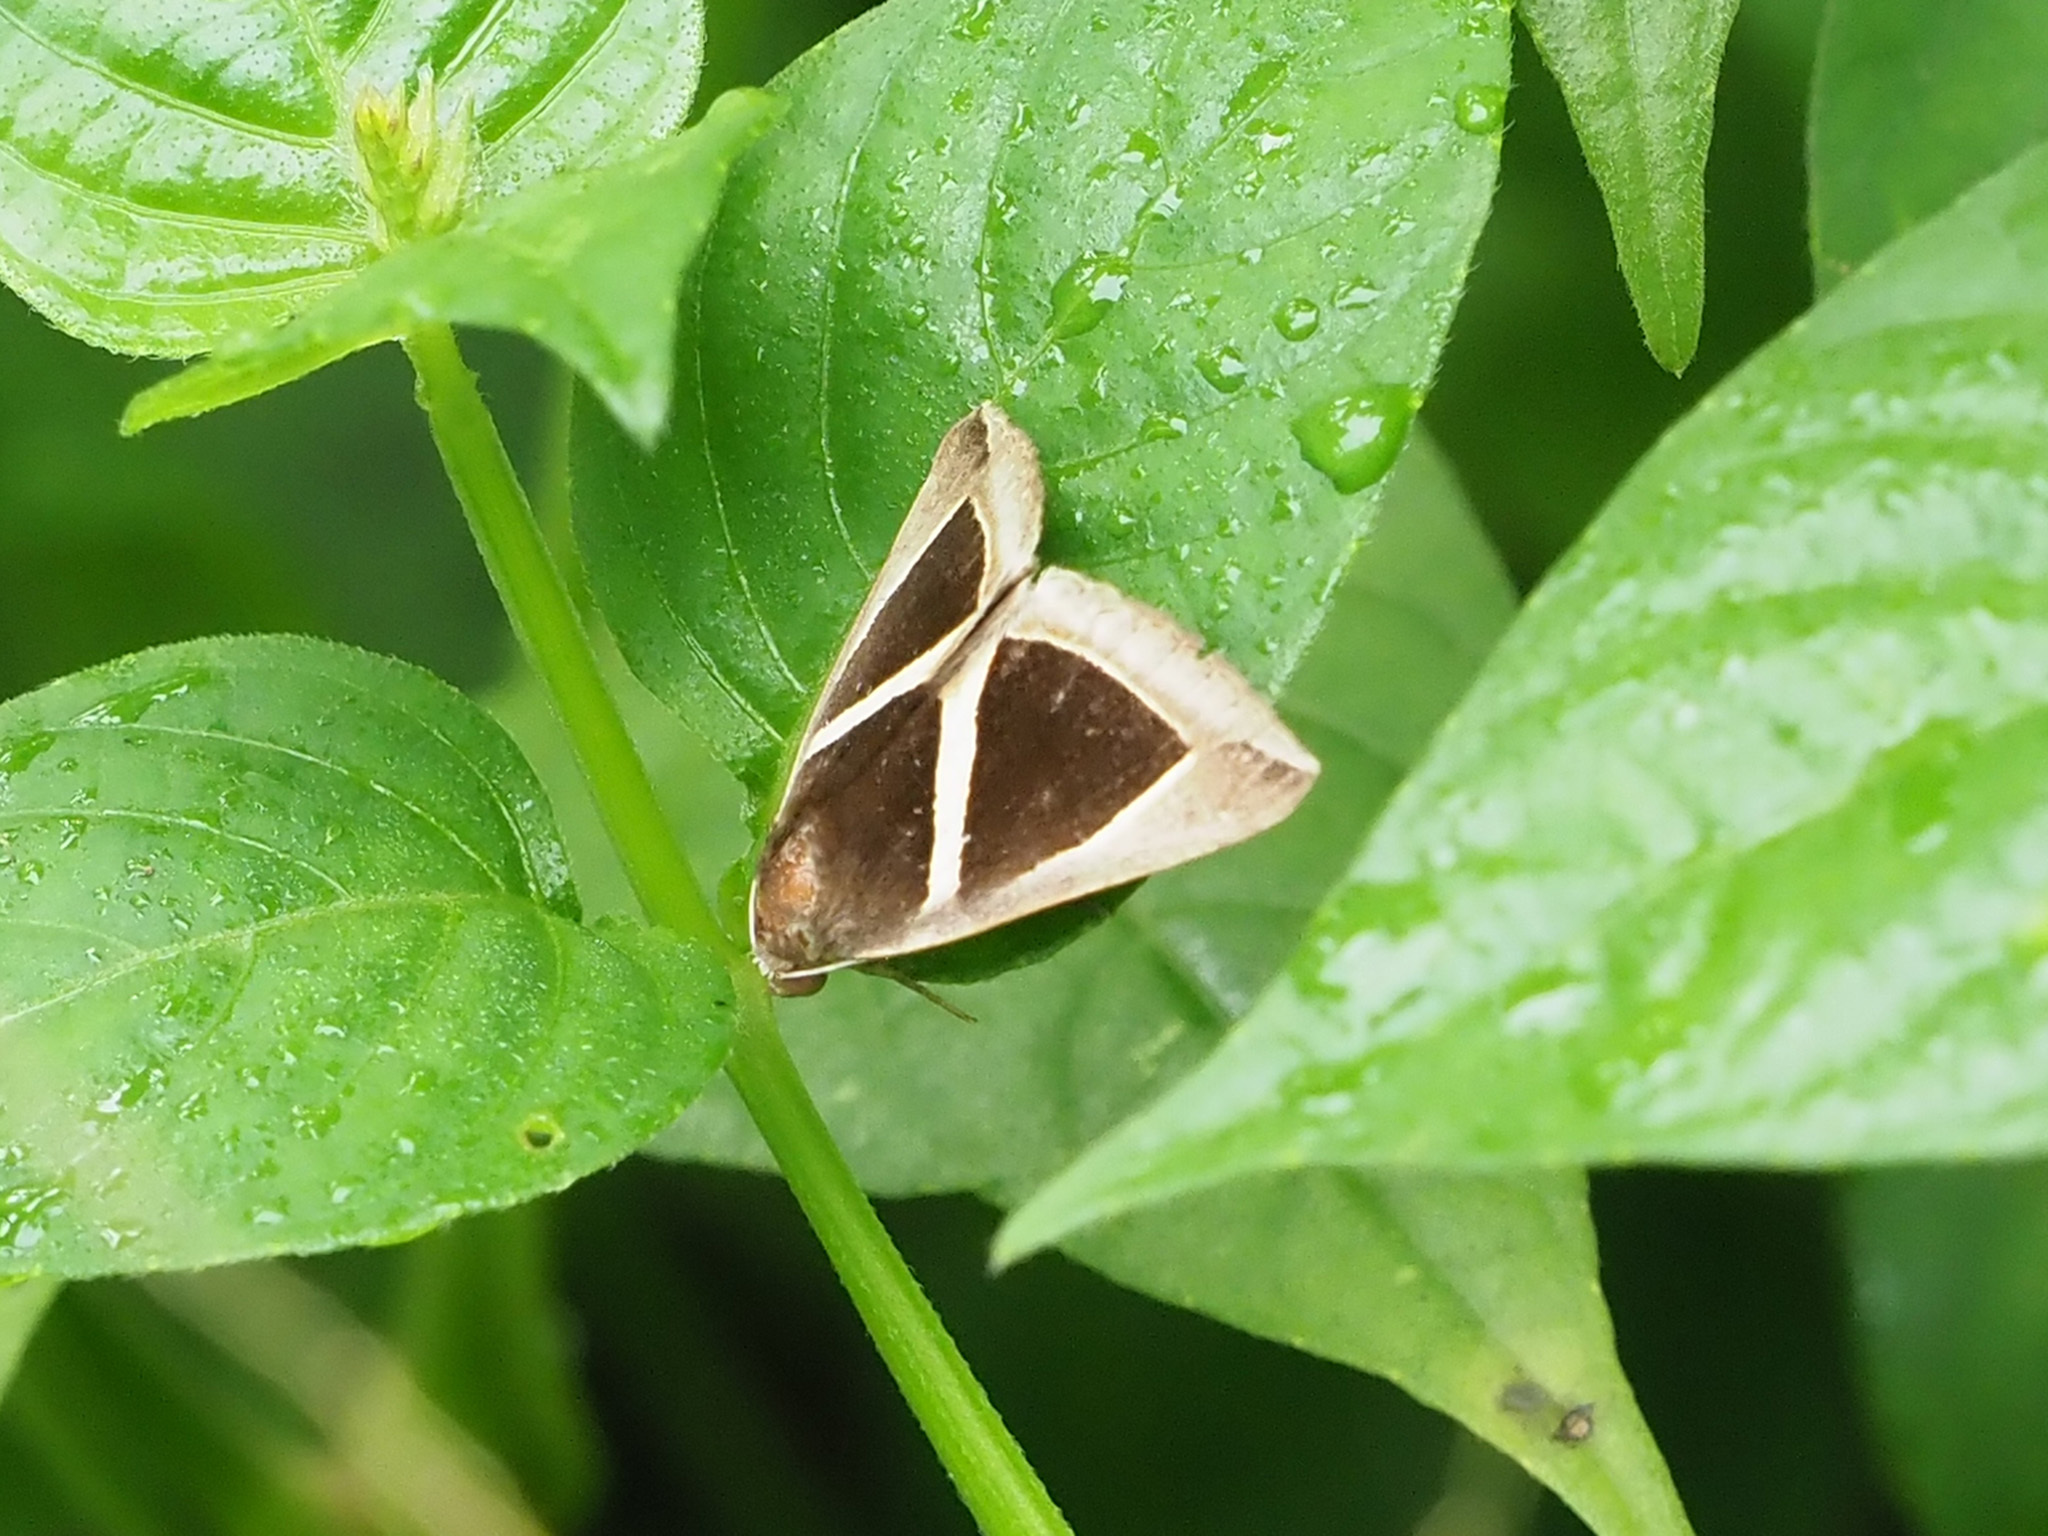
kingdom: Animalia
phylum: Arthropoda
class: Insecta
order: Lepidoptera
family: Erebidae
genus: Chalciope
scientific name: Chalciope mygdon
